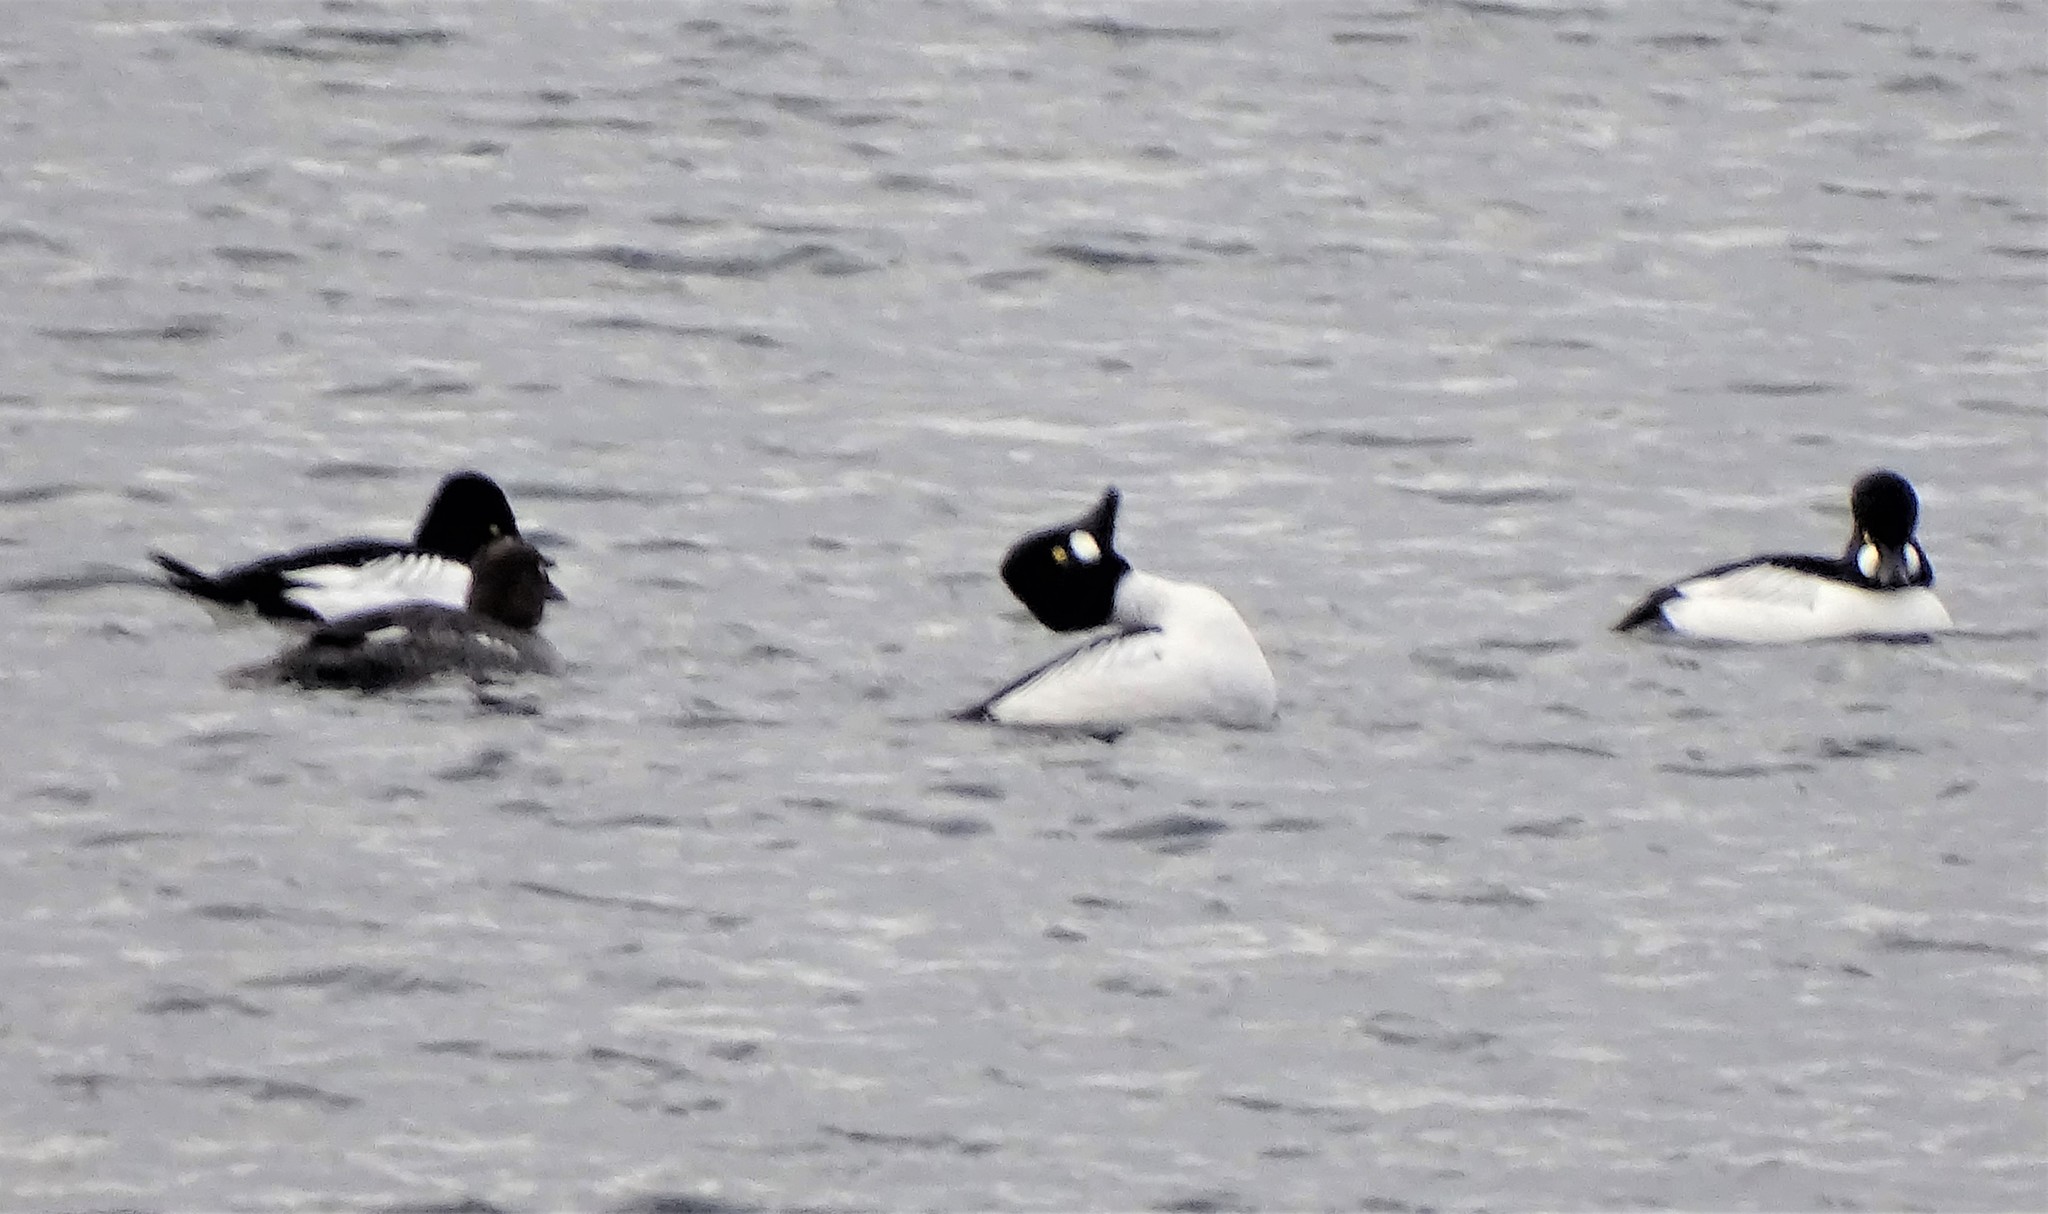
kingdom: Animalia
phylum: Chordata
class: Aves
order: Anseriformes
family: Anatidae
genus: Bucephala
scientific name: Bucephala clangula
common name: Common goldeneye
